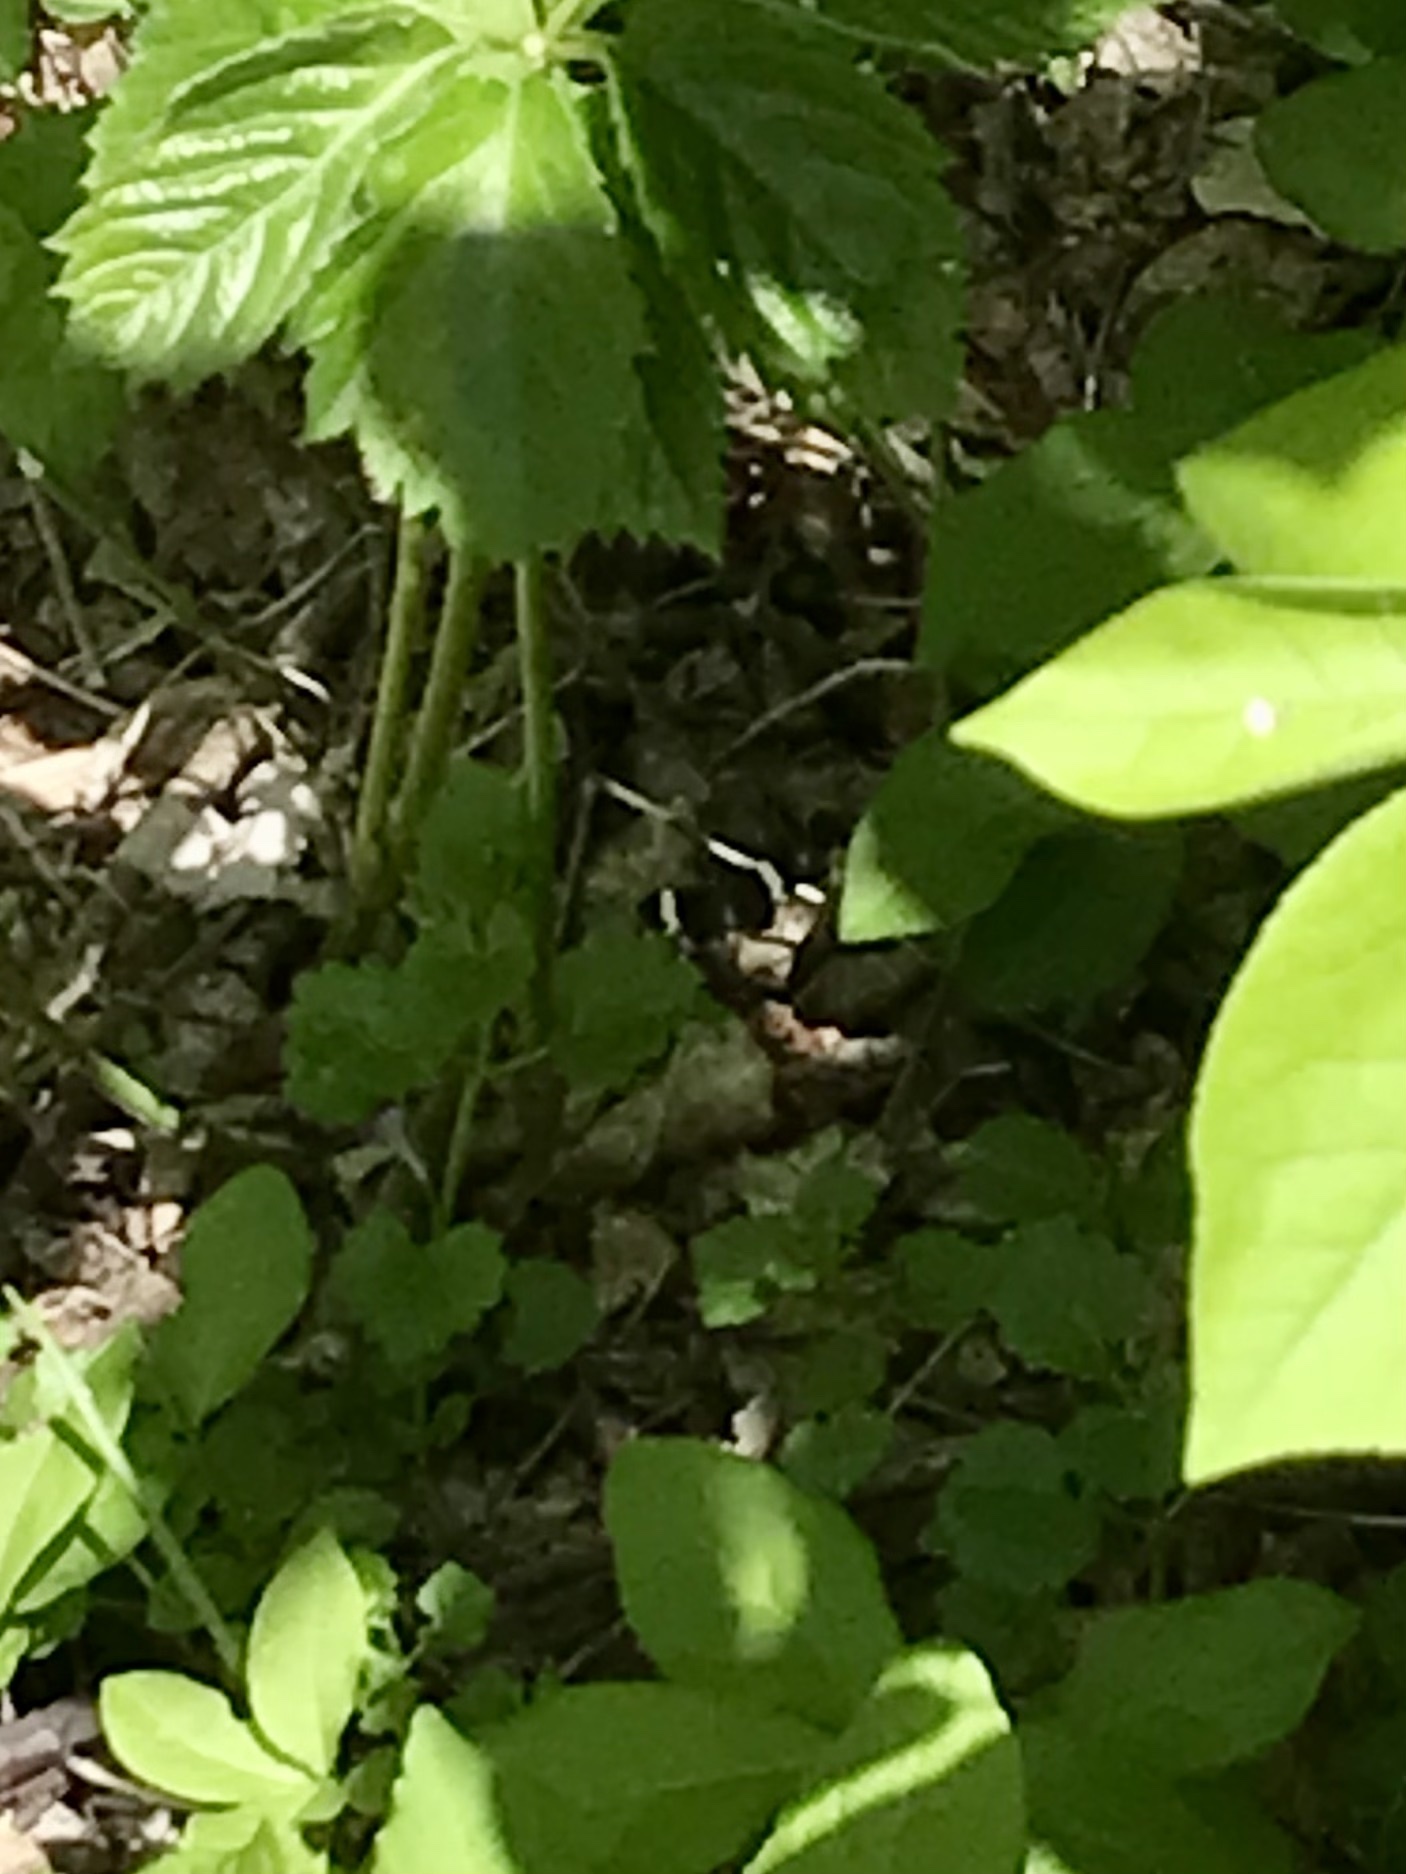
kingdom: Animalia
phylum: Arthropoda
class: Insecta
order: Lepidoptera
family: Geometridae
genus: Trichodezia
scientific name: Trichodezia albovittata
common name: White striped black
